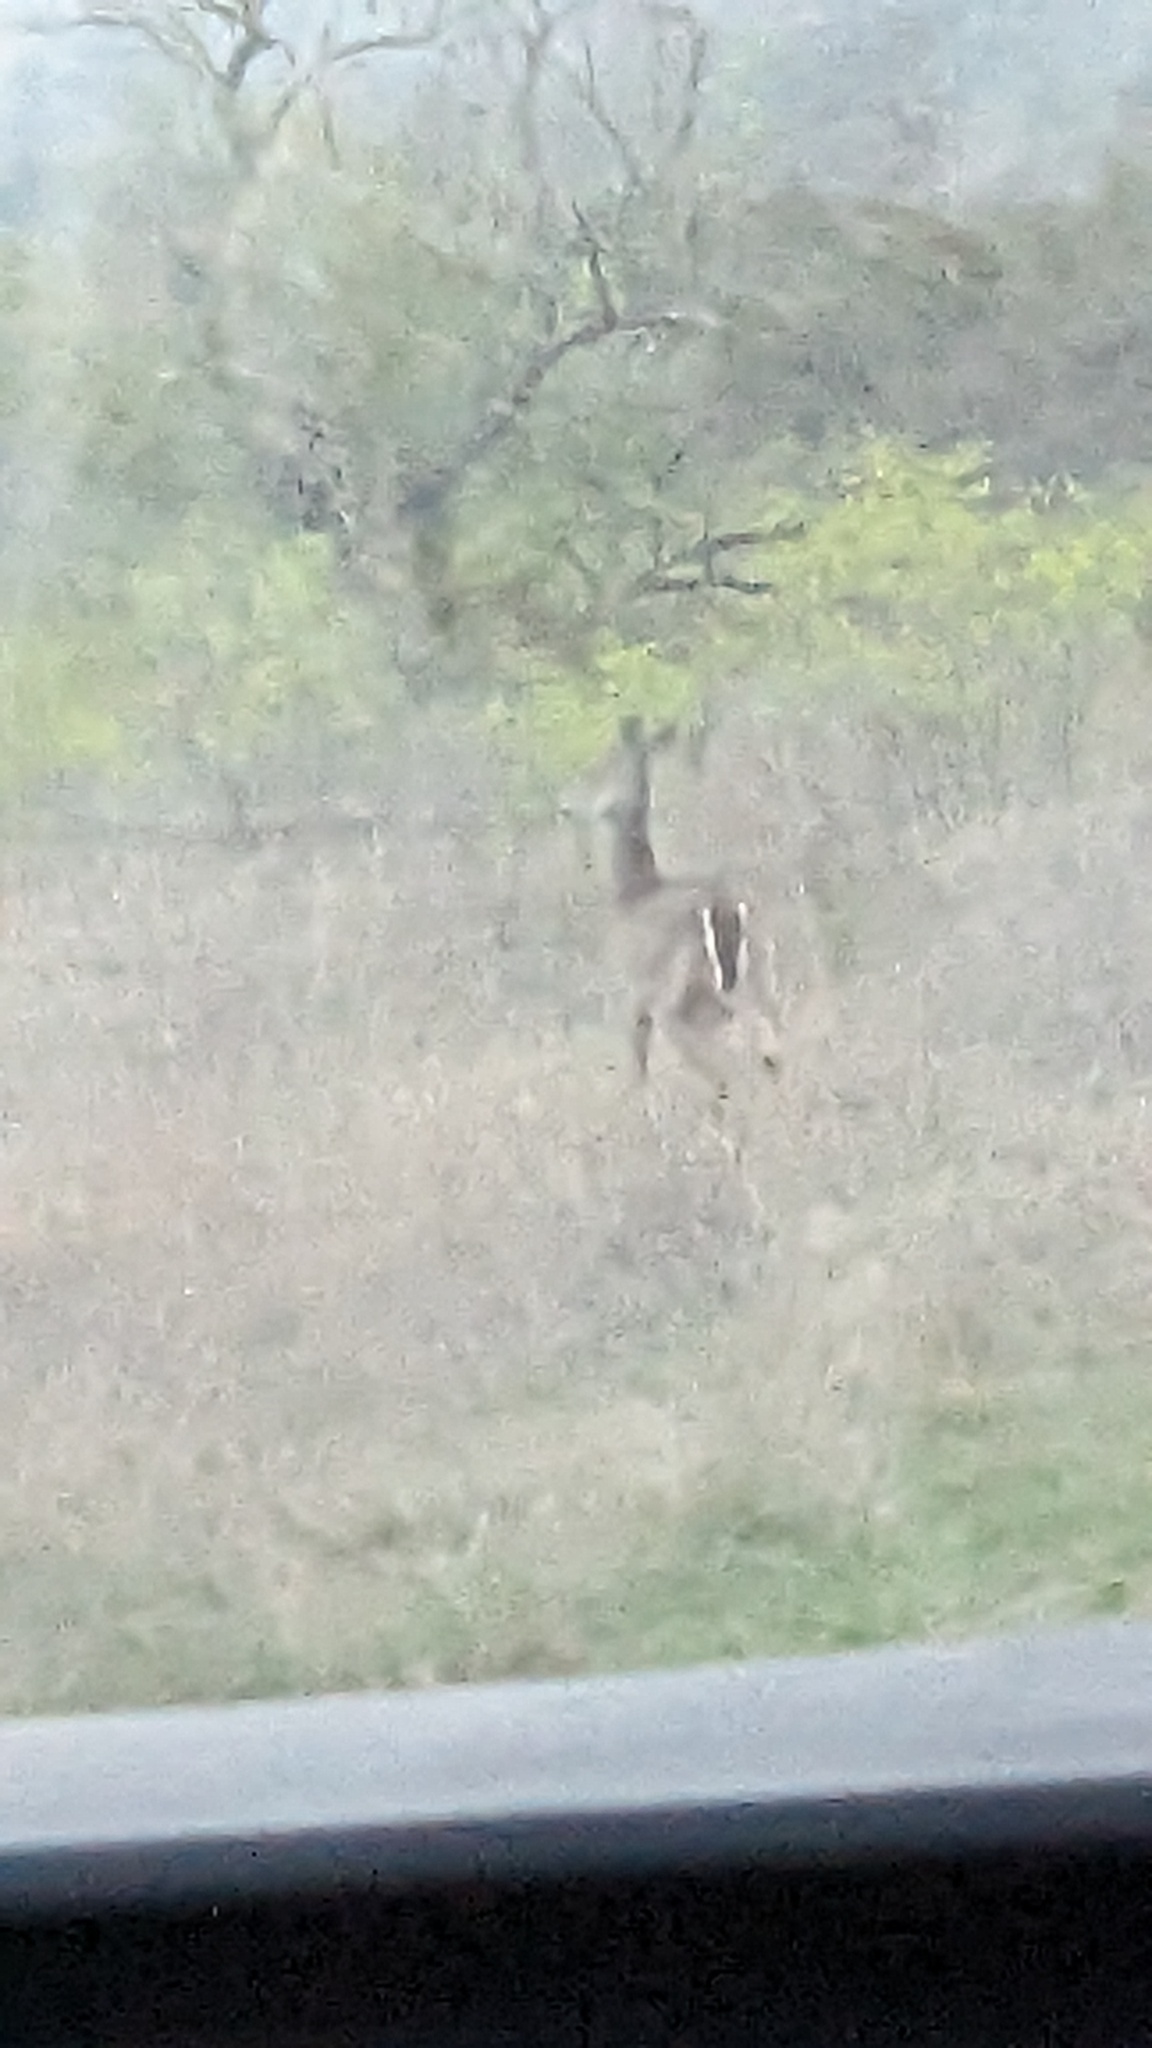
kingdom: Animalia
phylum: Chordata
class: Mammalia
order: Artiodactyla
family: Cervidae
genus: Odocoileus
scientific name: Odocoileus virginianus
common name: White-tailed deer
